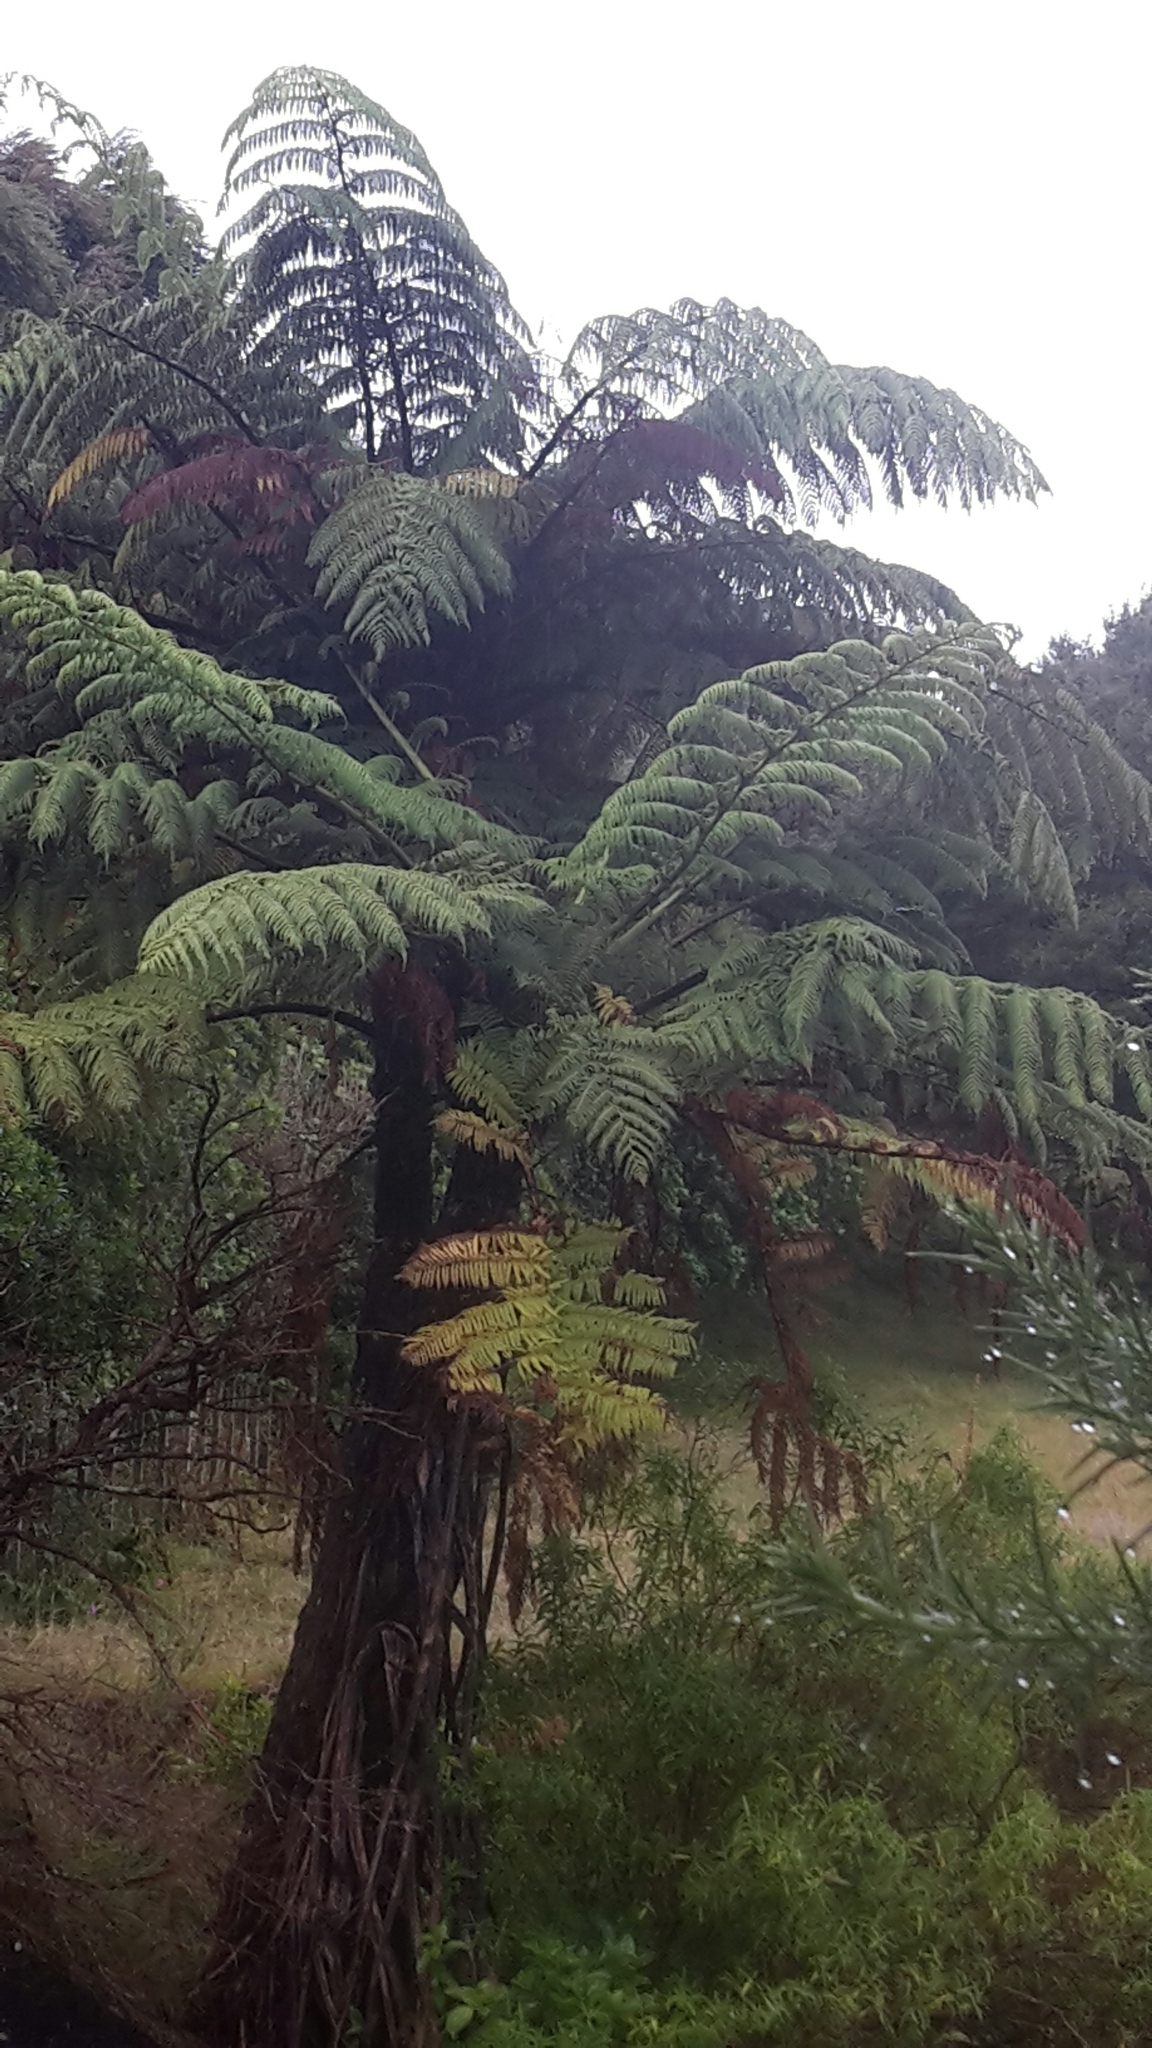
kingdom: Plantae
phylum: Tracheophyta
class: Polypodiopsida
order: Cyatheales
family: Cyatheaceae
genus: Sphaeropteris
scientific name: Sphaeropteris medullaris
